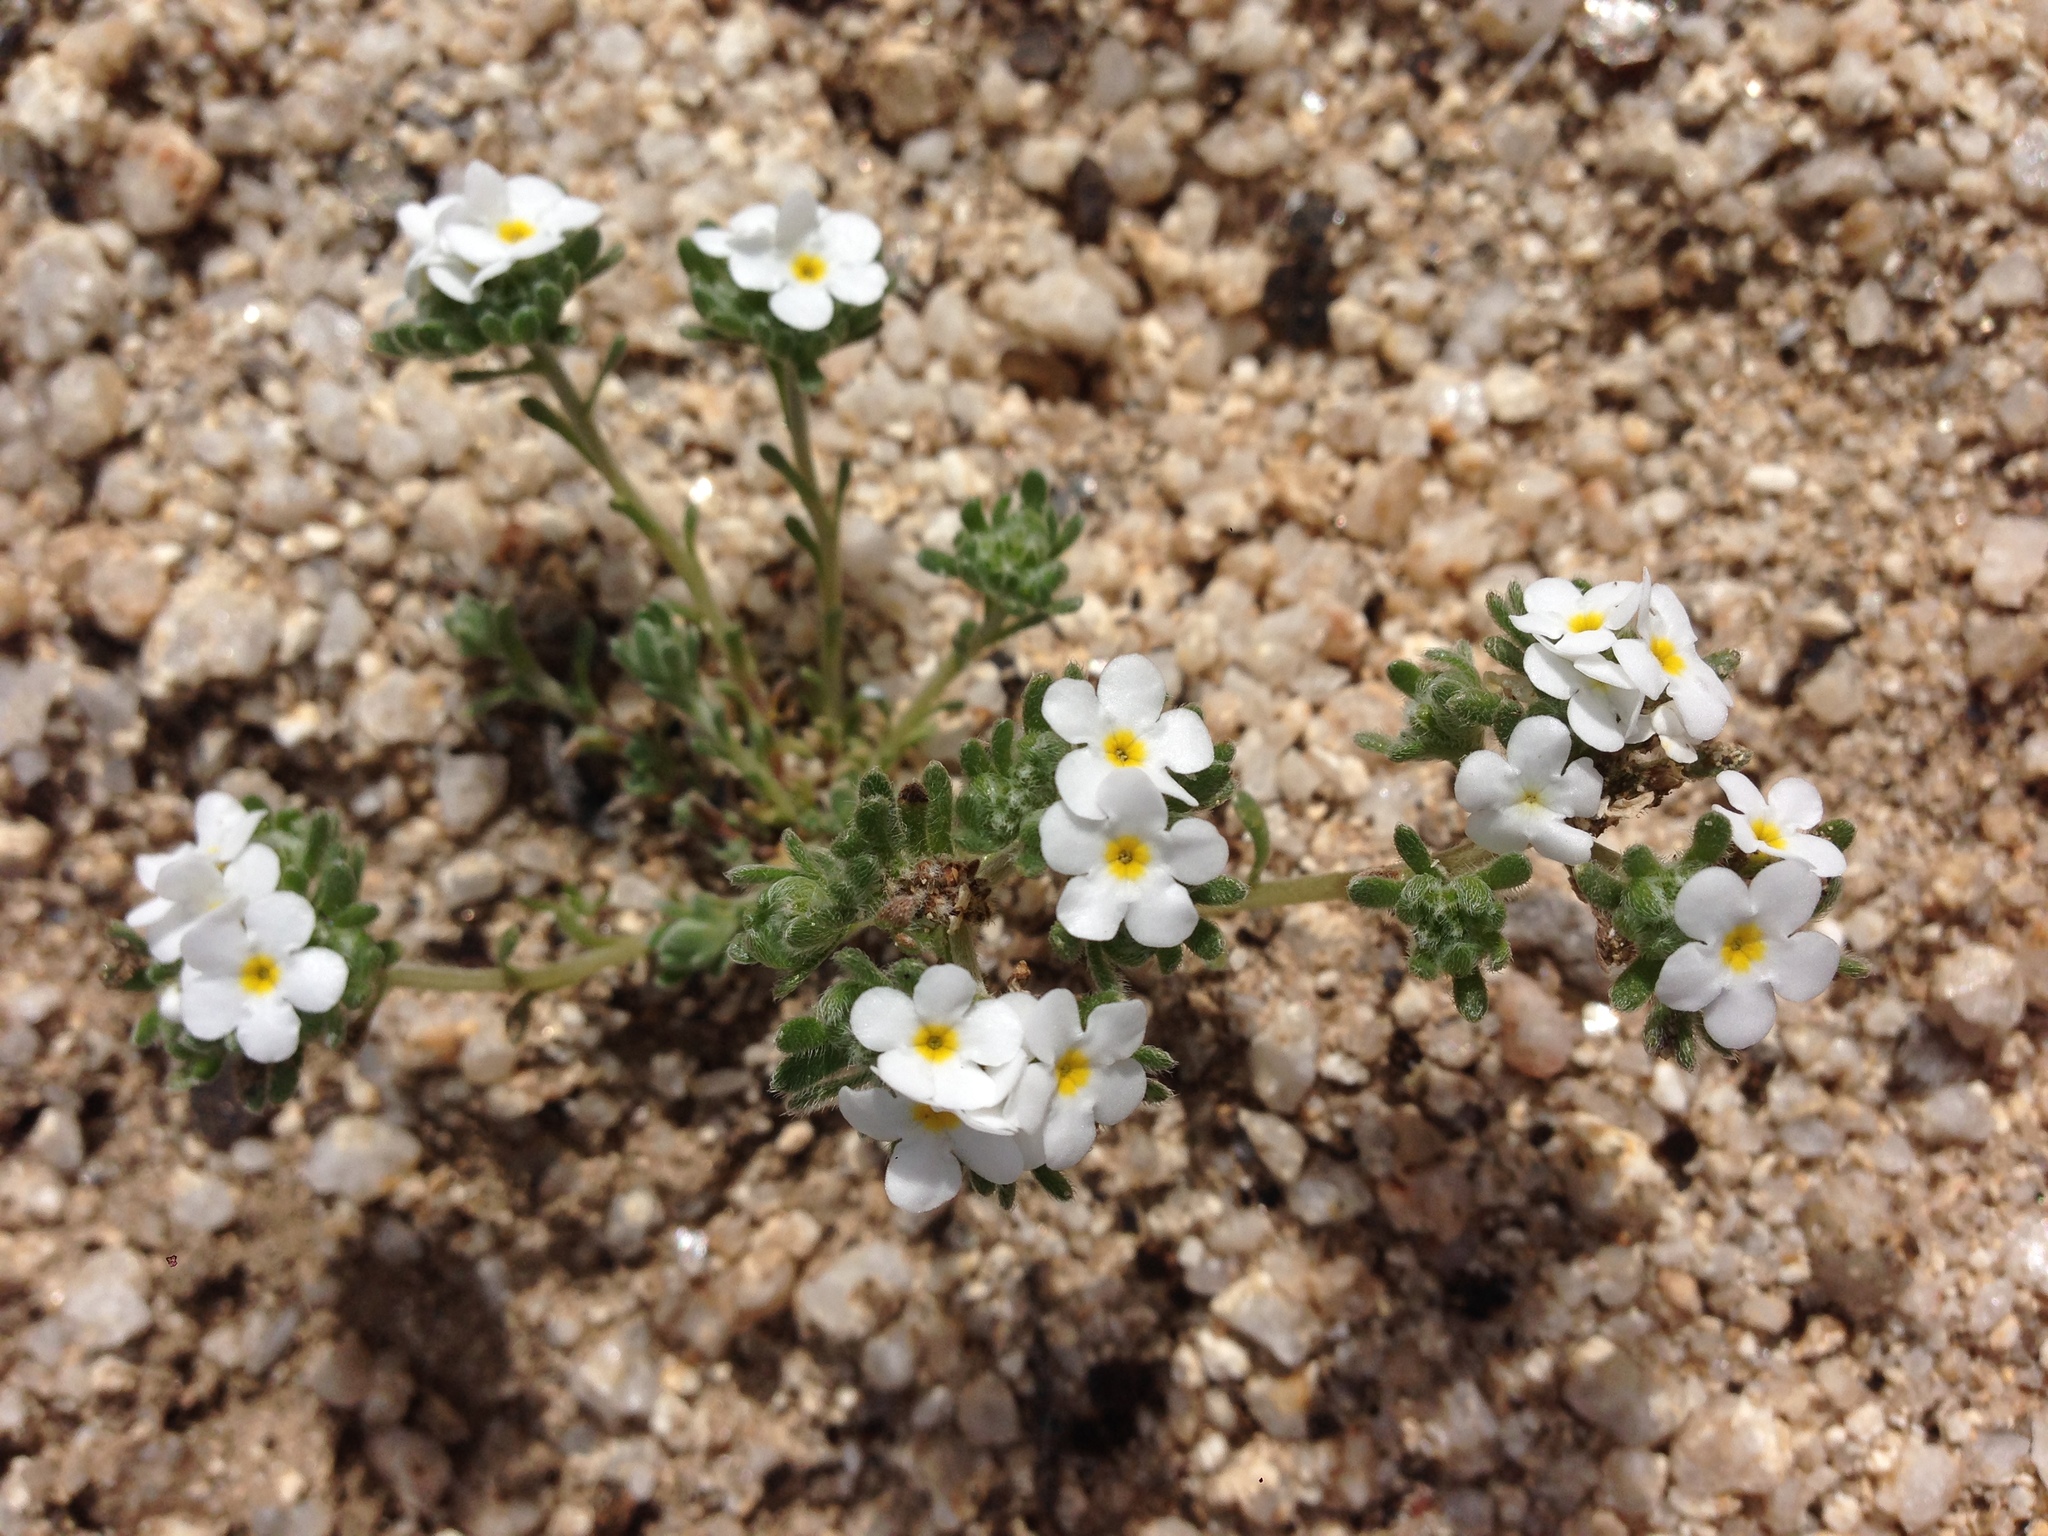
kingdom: Plantae
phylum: Tracheophyta
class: Magnoliopsida
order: Boraginales
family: Boraginaceae
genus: Eremocarya
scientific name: Eremocarya lepida
